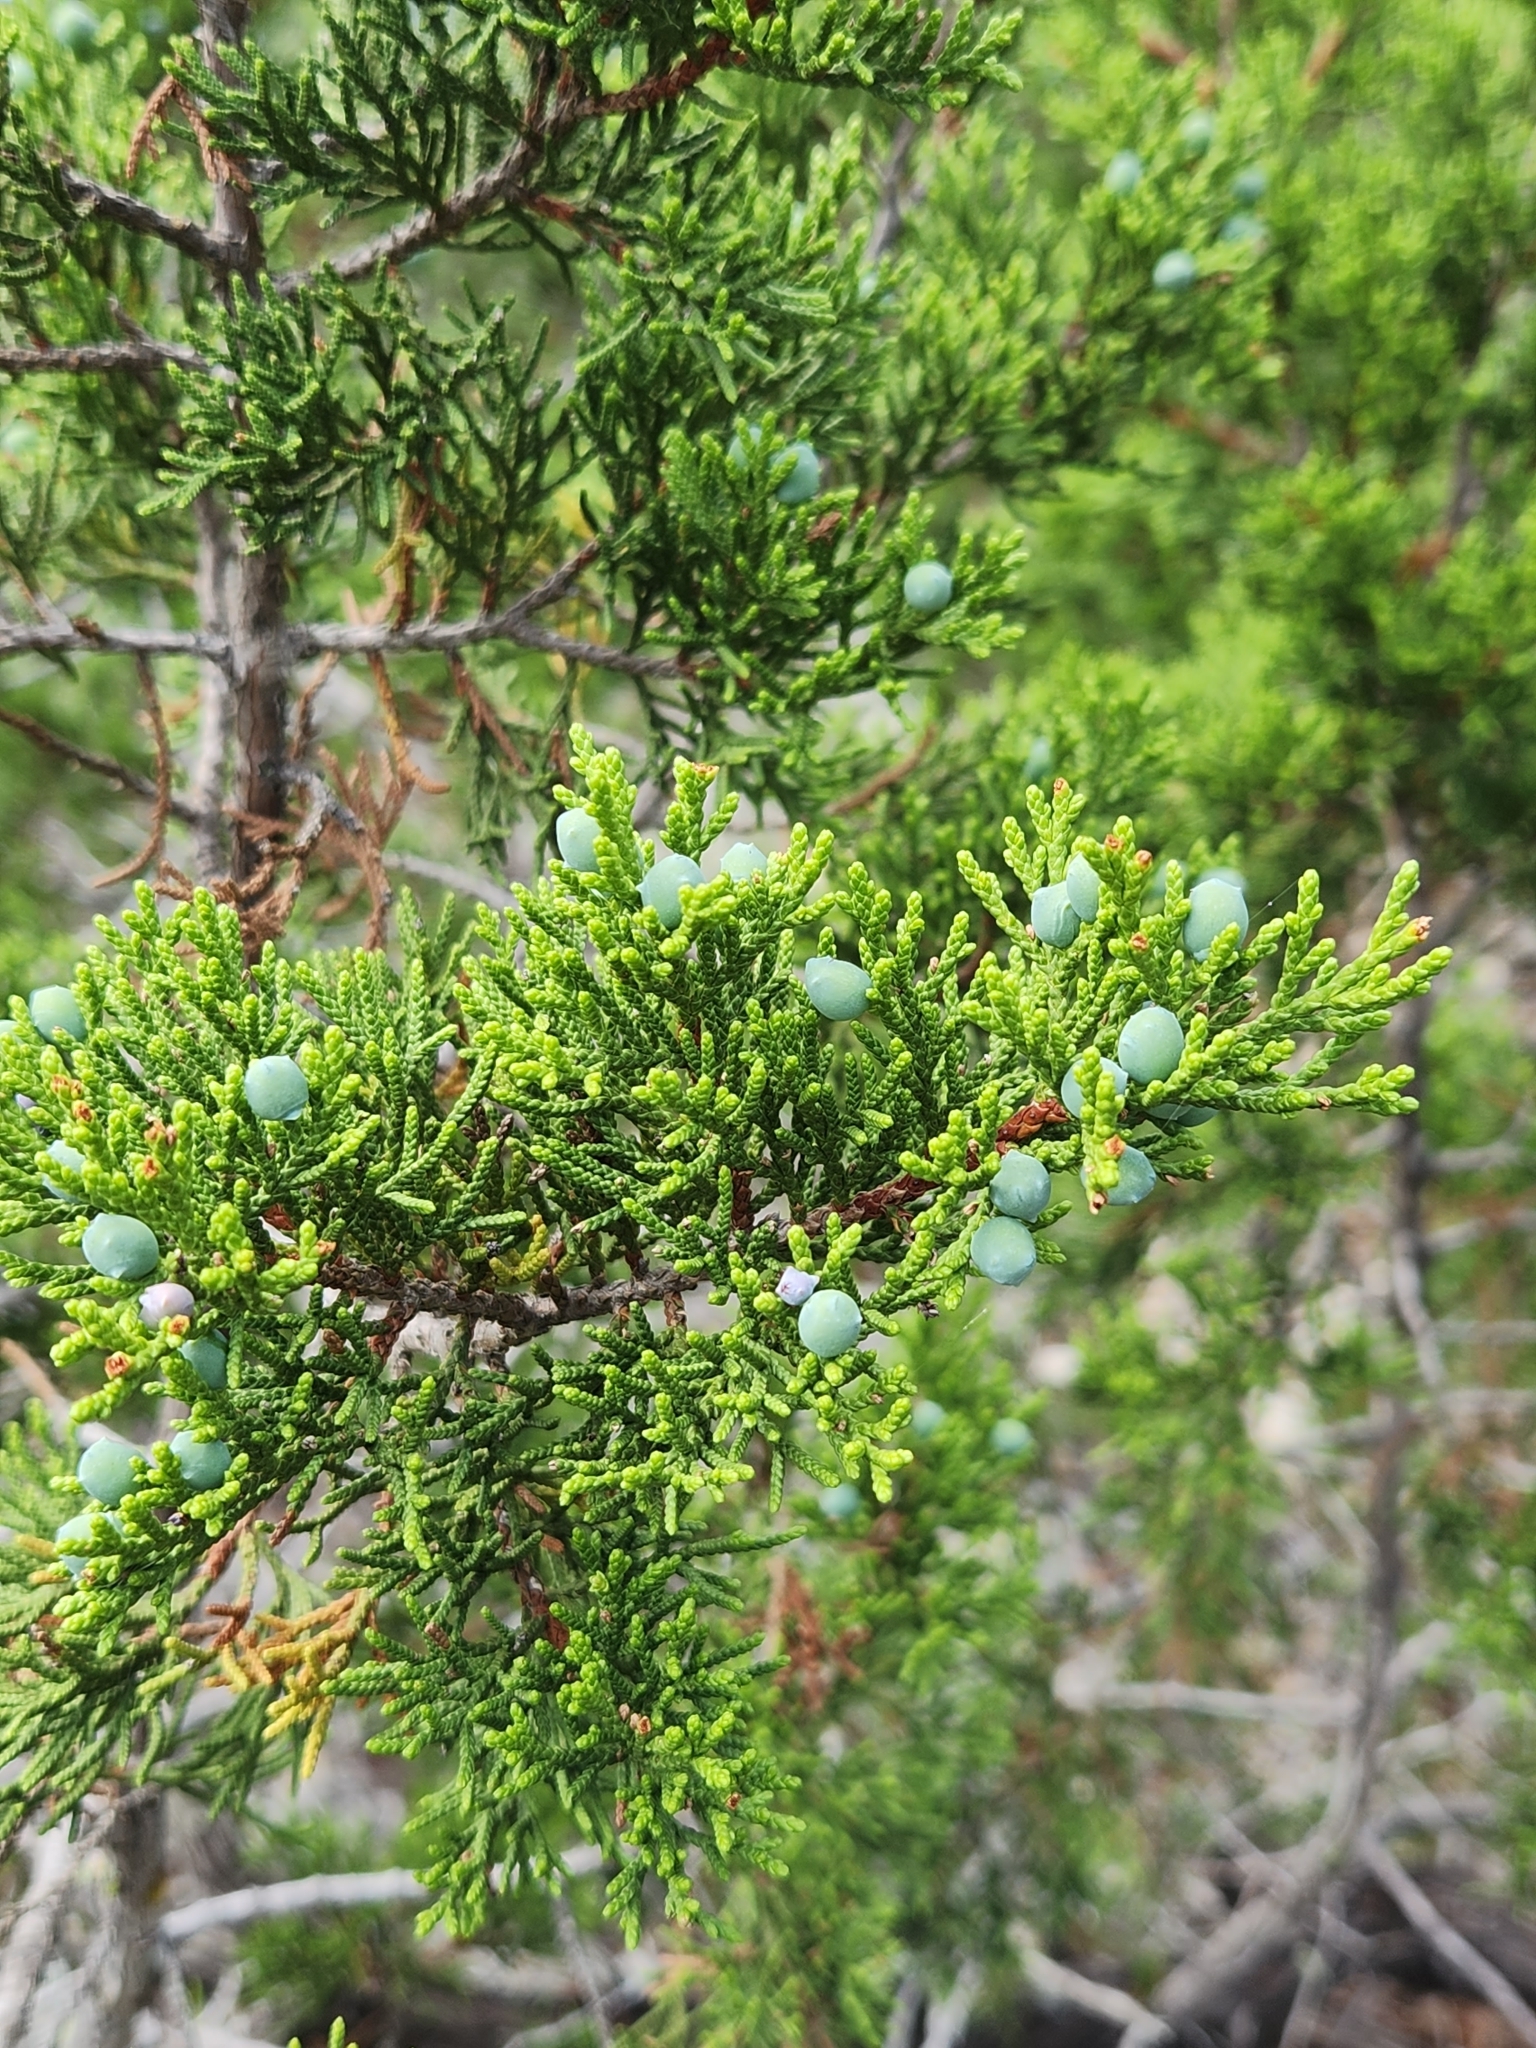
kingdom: Plantae
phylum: Tracheophyta
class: Pinopsida
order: Pinales
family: Cupressaceae
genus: Juniperus
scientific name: Juniperus ashei
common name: Mexican juniper
